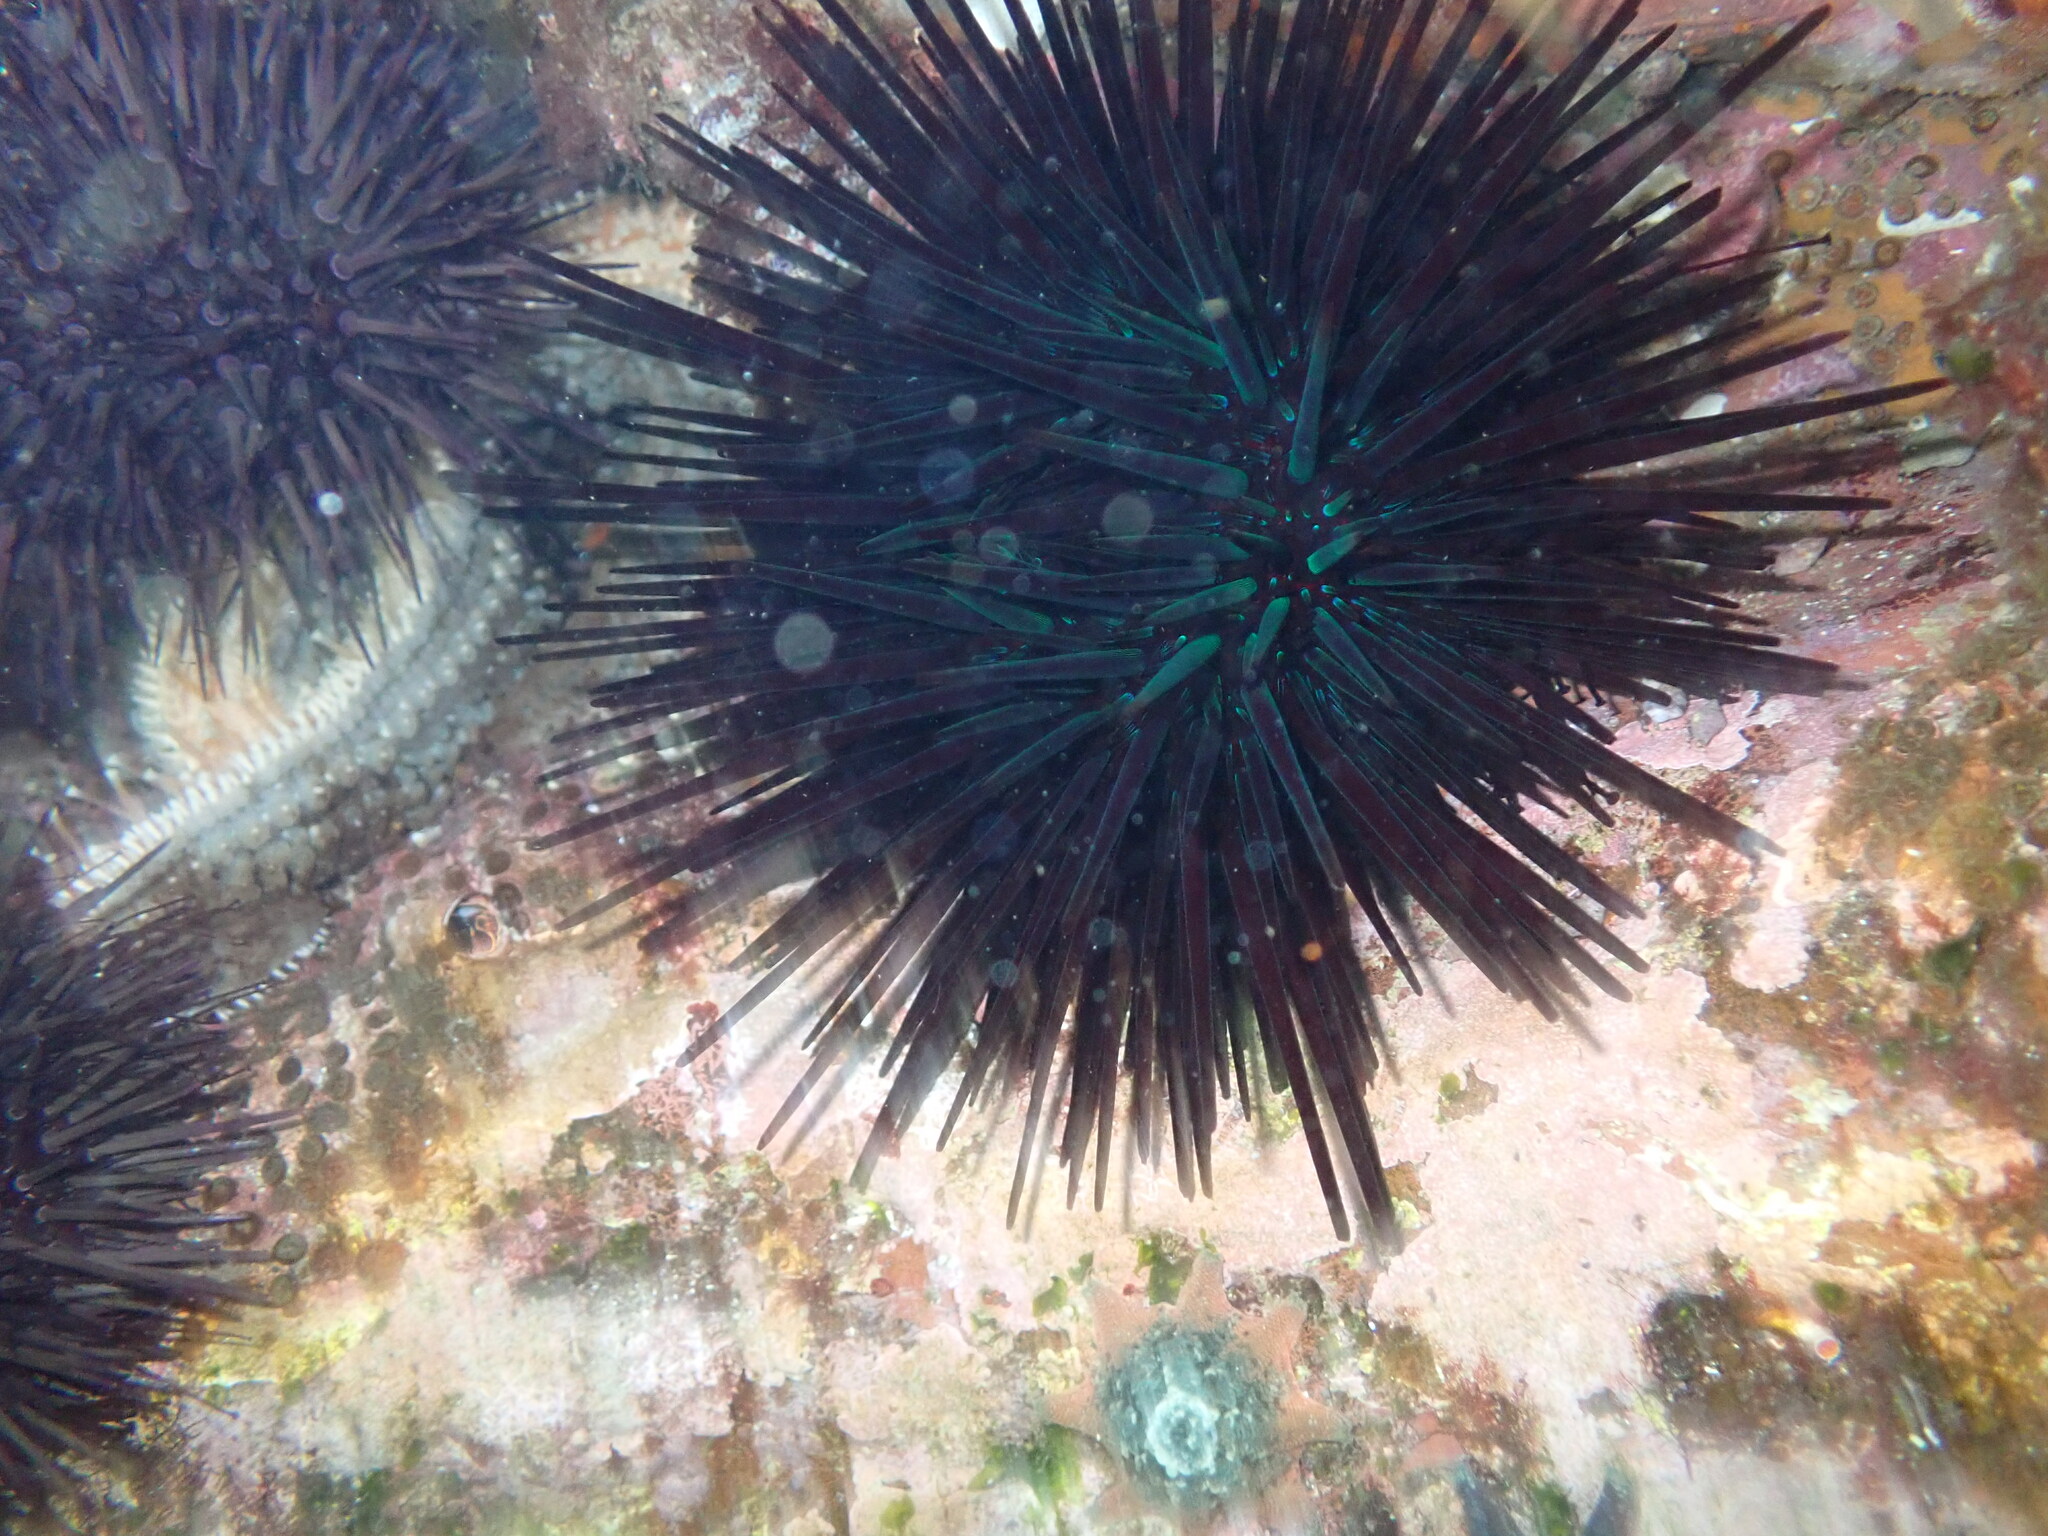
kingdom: Animalia
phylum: Echinodermata
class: Echinoidea
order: Diadematoida
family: Diadematidae
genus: Centrostephanus
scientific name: Centrostephanus rodgersii
